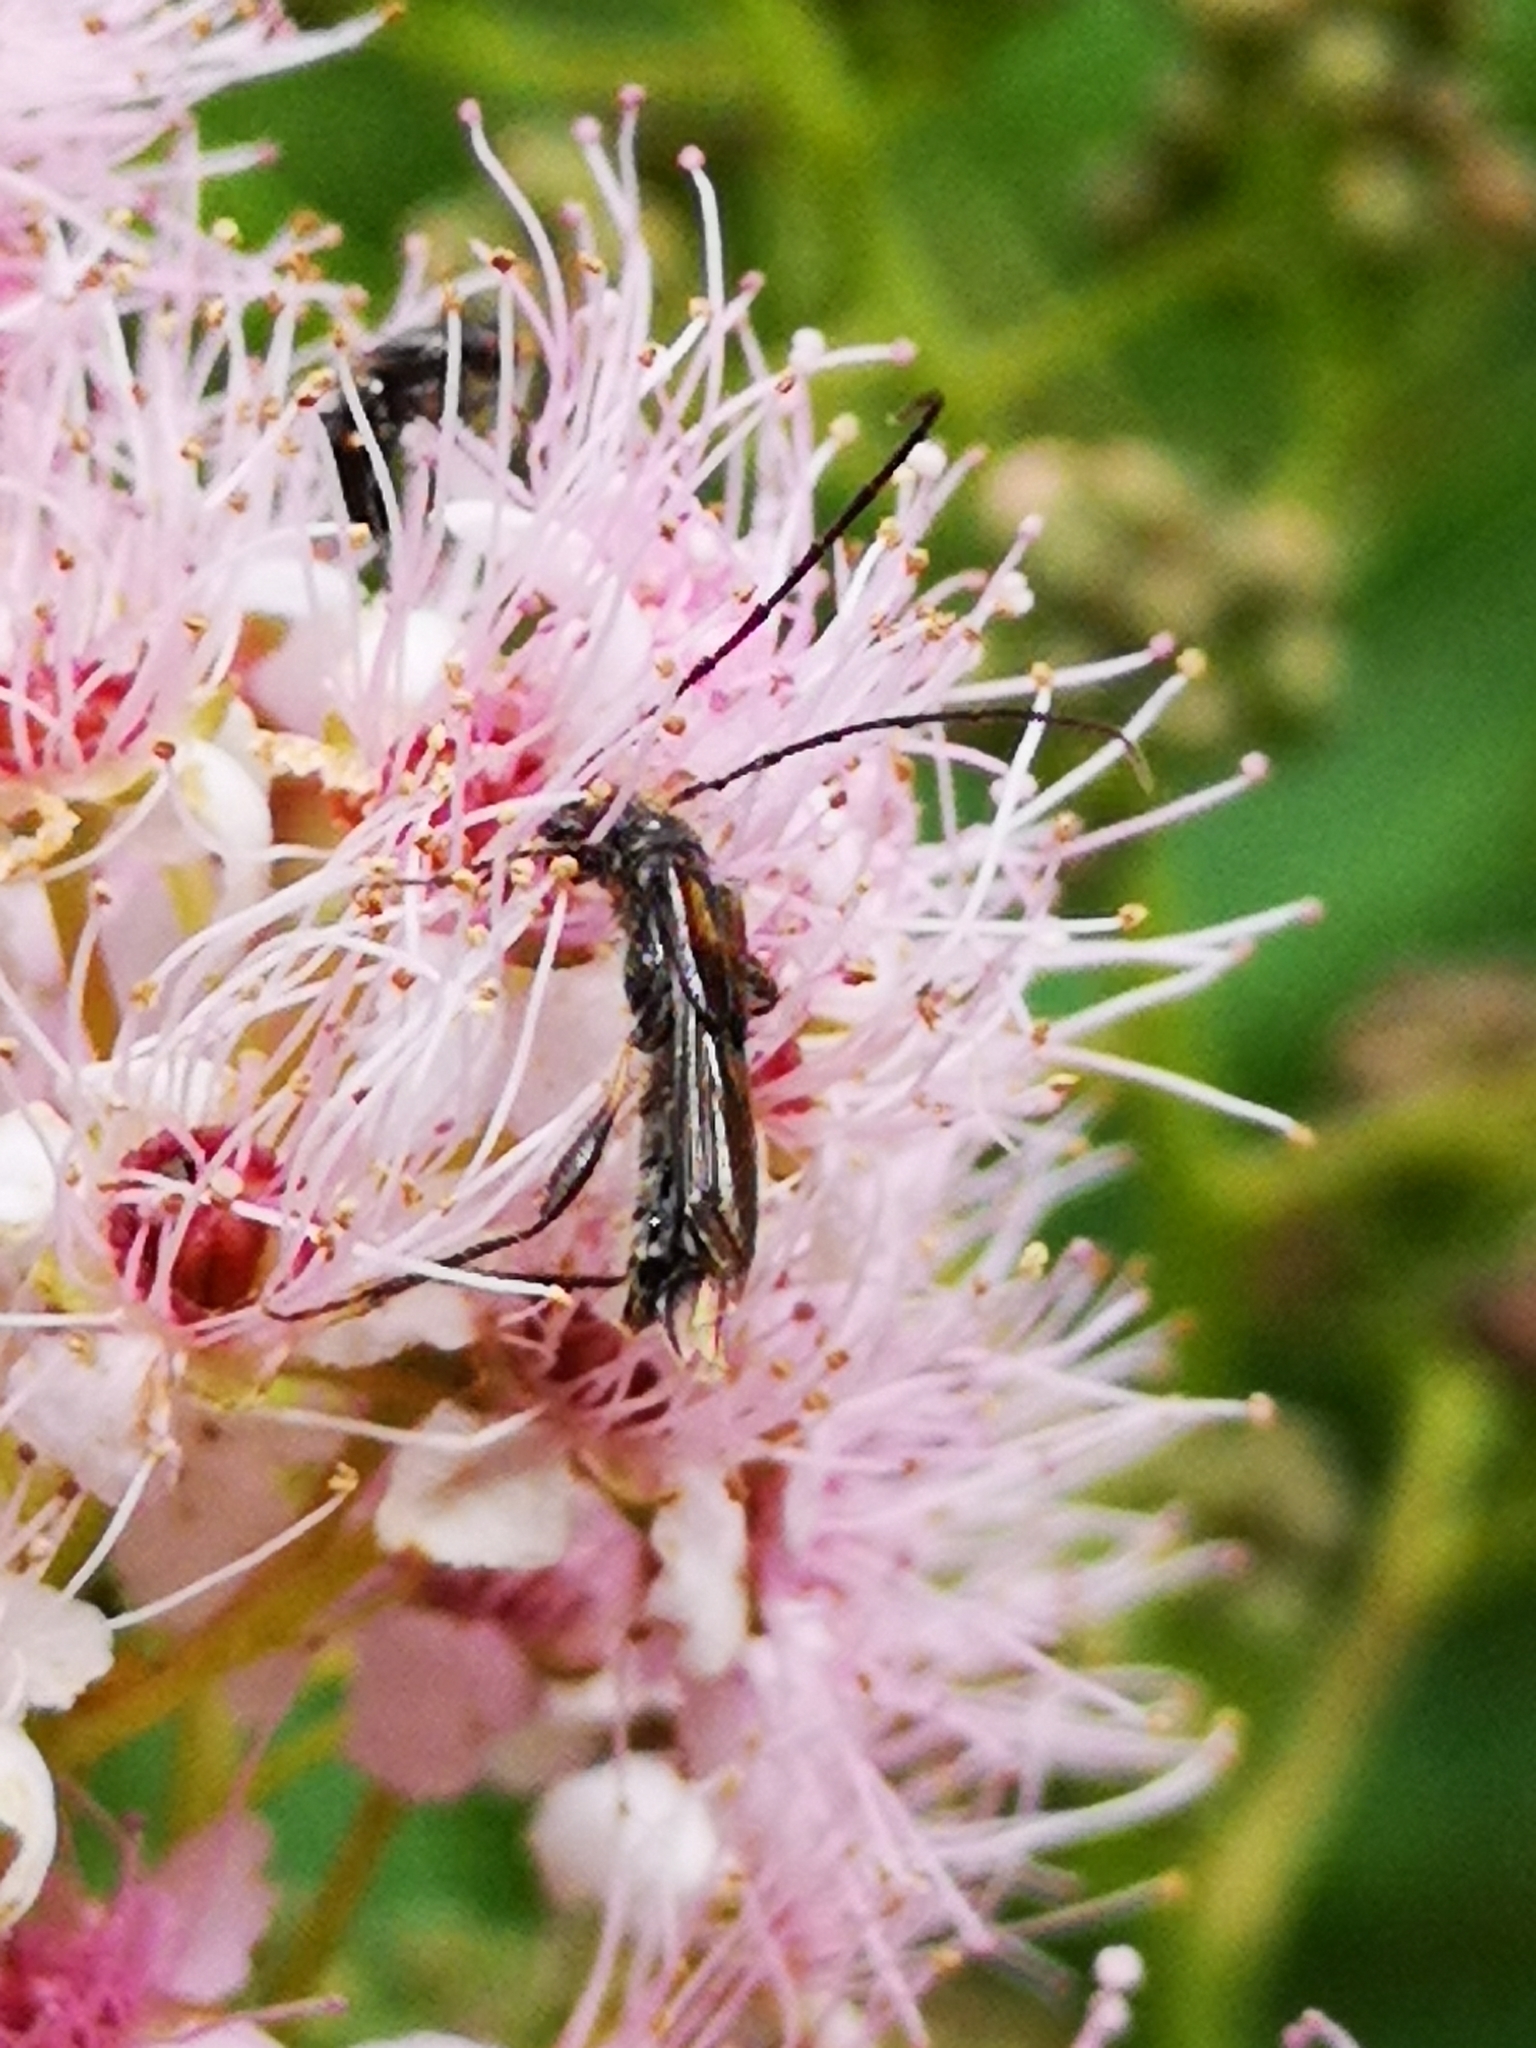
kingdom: Animalia
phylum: Arthropoda
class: Insecta
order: Coleoptera
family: Cerambycidae
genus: Molorchus
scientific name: Molorchus umbellatarum
